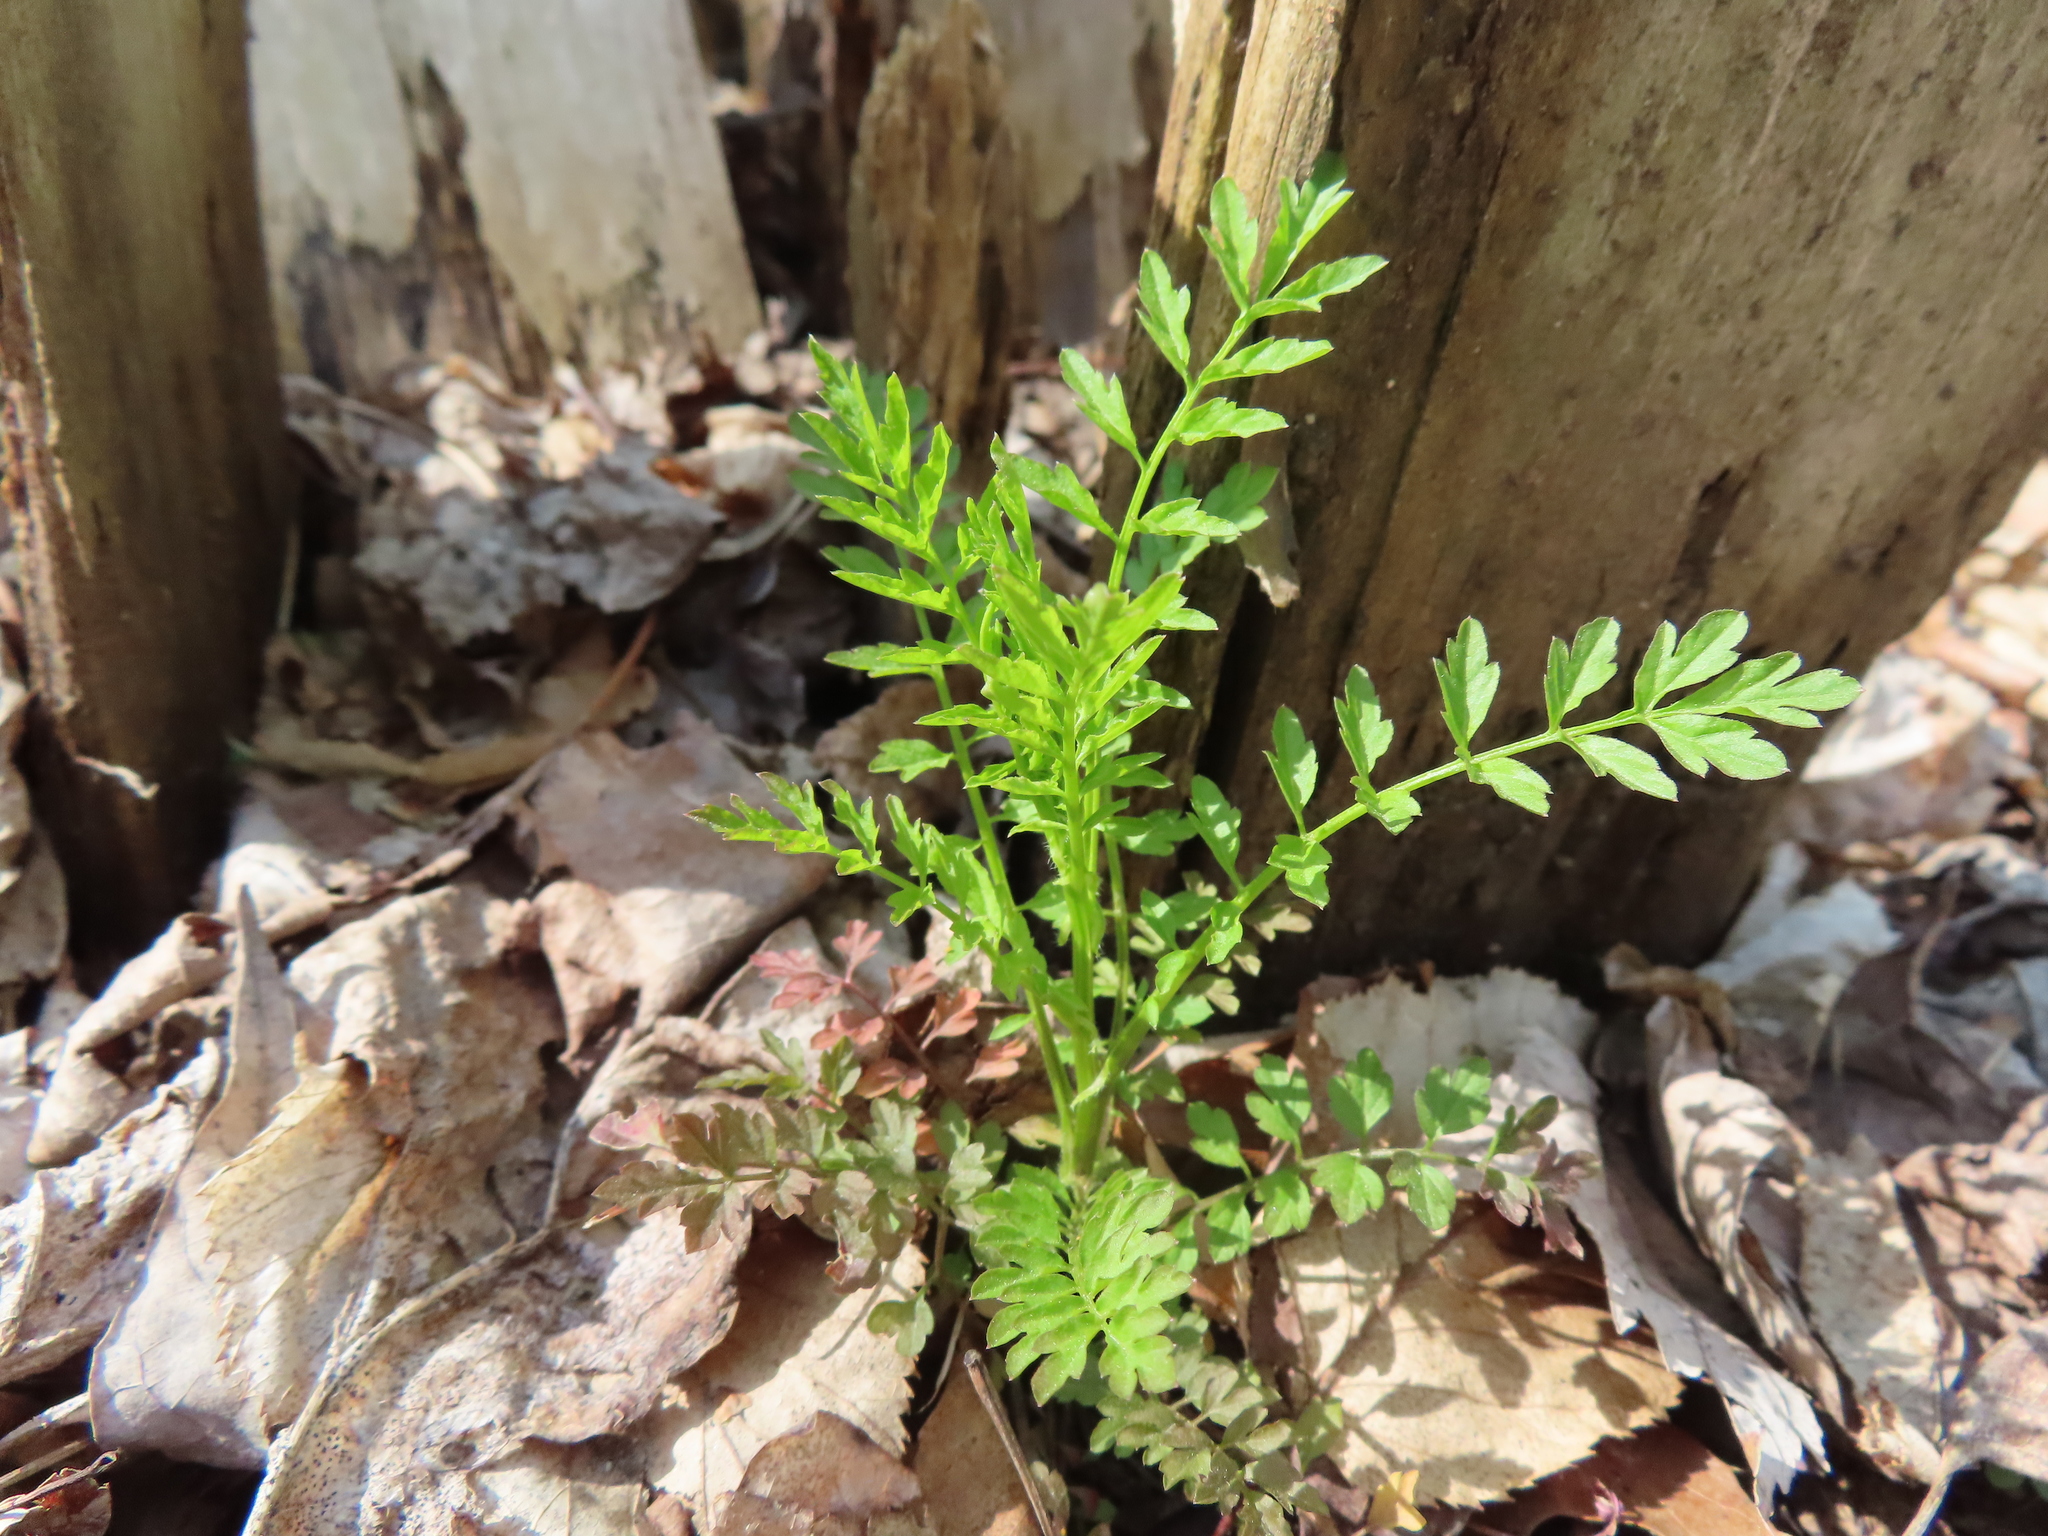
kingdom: Plantae
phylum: Tracheophyta
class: Magnoliopsida
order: Brassicales
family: Brassicaceae
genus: Cardamine
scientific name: Cardamine impatiens
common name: Narrow-leaved bitter-cress
